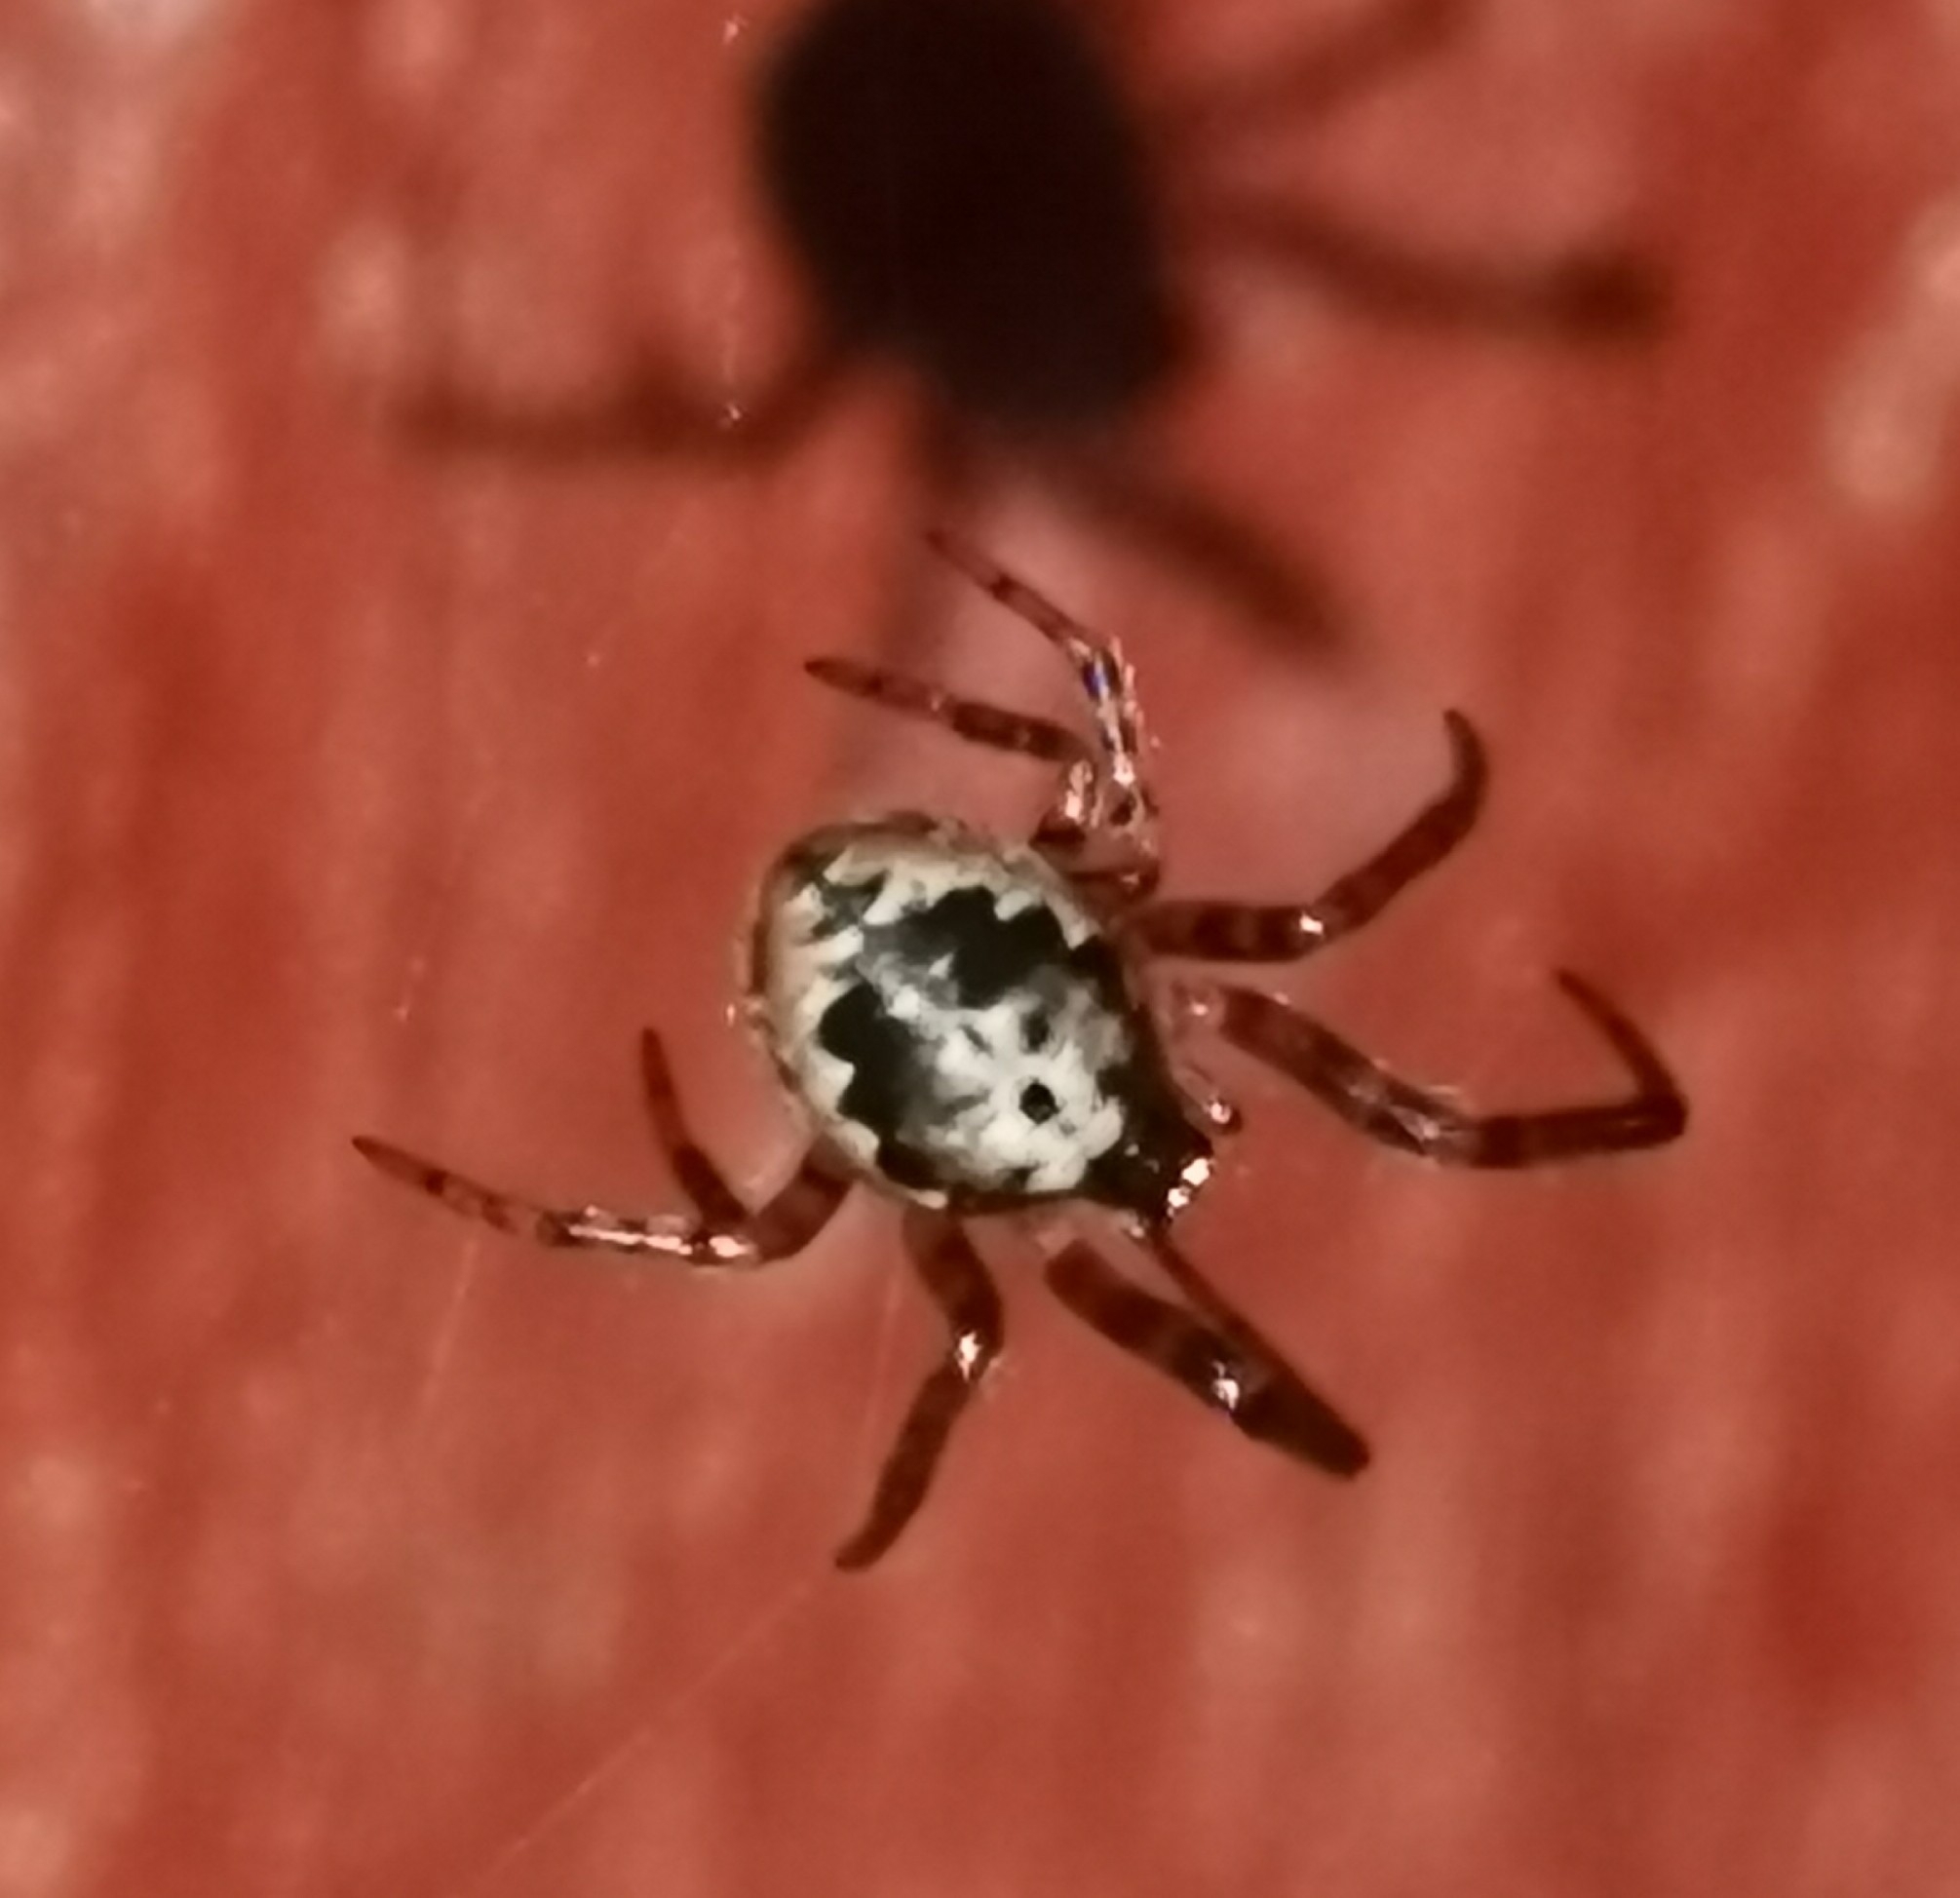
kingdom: Animalia
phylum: Arthropoda
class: Arachnida
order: Araneae
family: Araneidae
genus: Leviellus
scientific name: Leviellus stroemi
